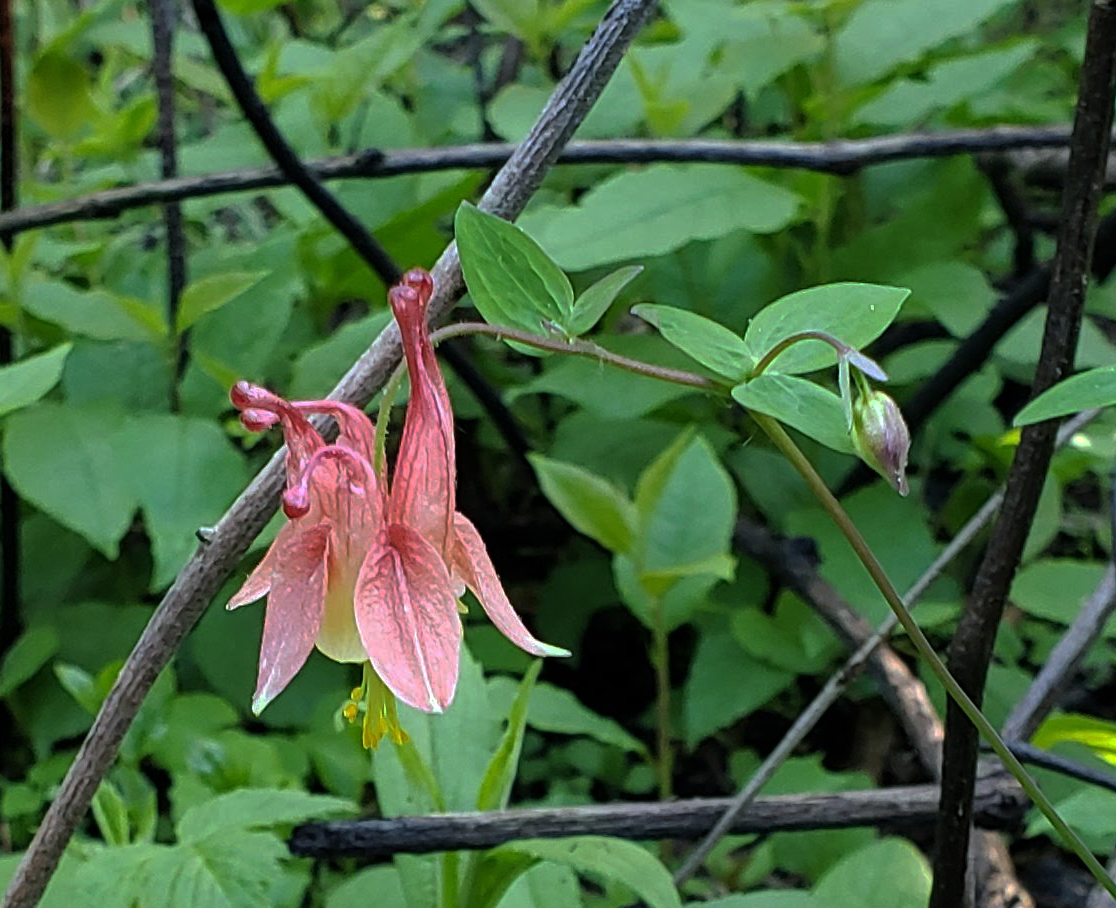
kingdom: Plantae
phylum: Tracheophyta
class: Magnoliopsida
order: Ranunculales
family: Ranunculaceae
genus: Aquilegia
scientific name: Aquilegia canadensis
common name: American columbine
